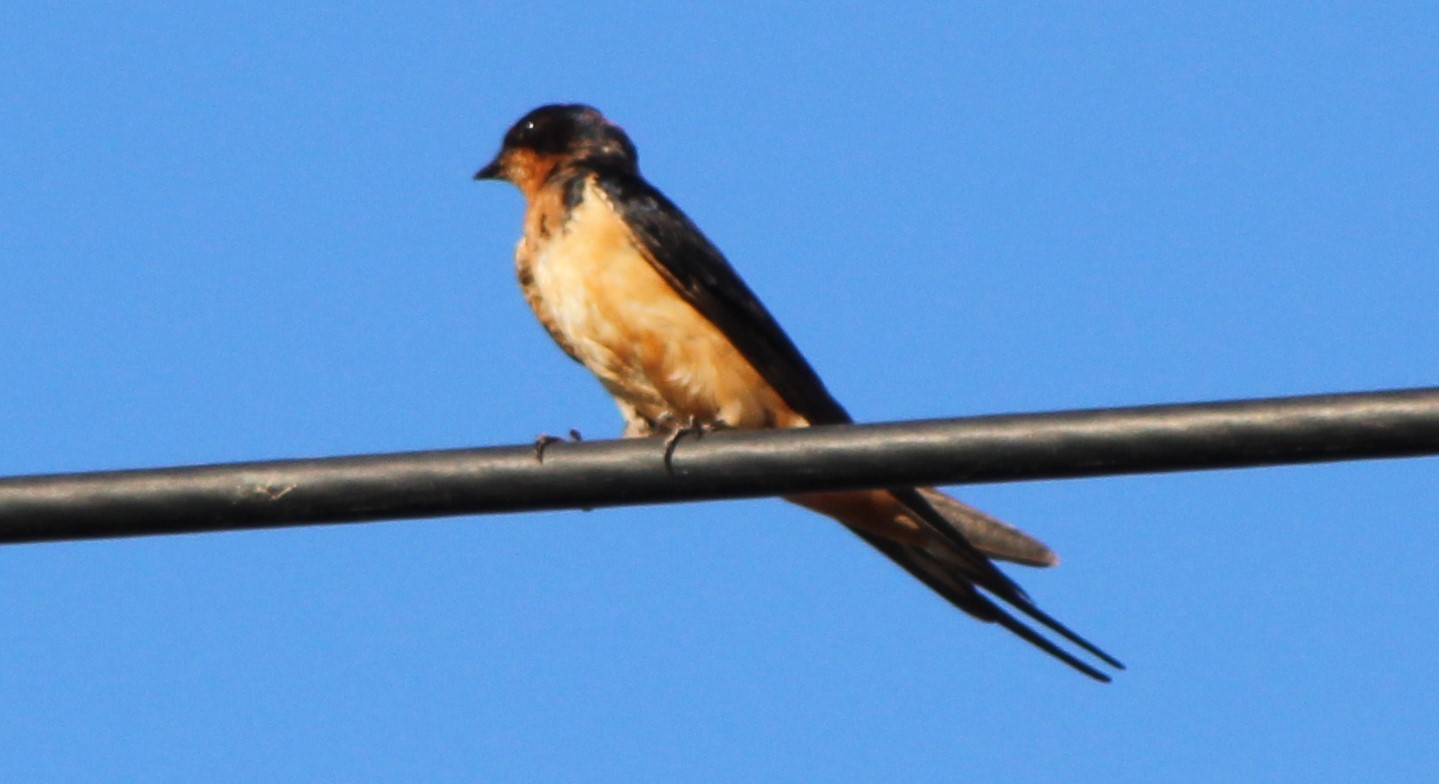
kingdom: Animalia
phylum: Chordata
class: Aves
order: Passeriformes
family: Hirundinidae
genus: Hirundo
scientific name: Hirundo rustica
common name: Barn swallow
